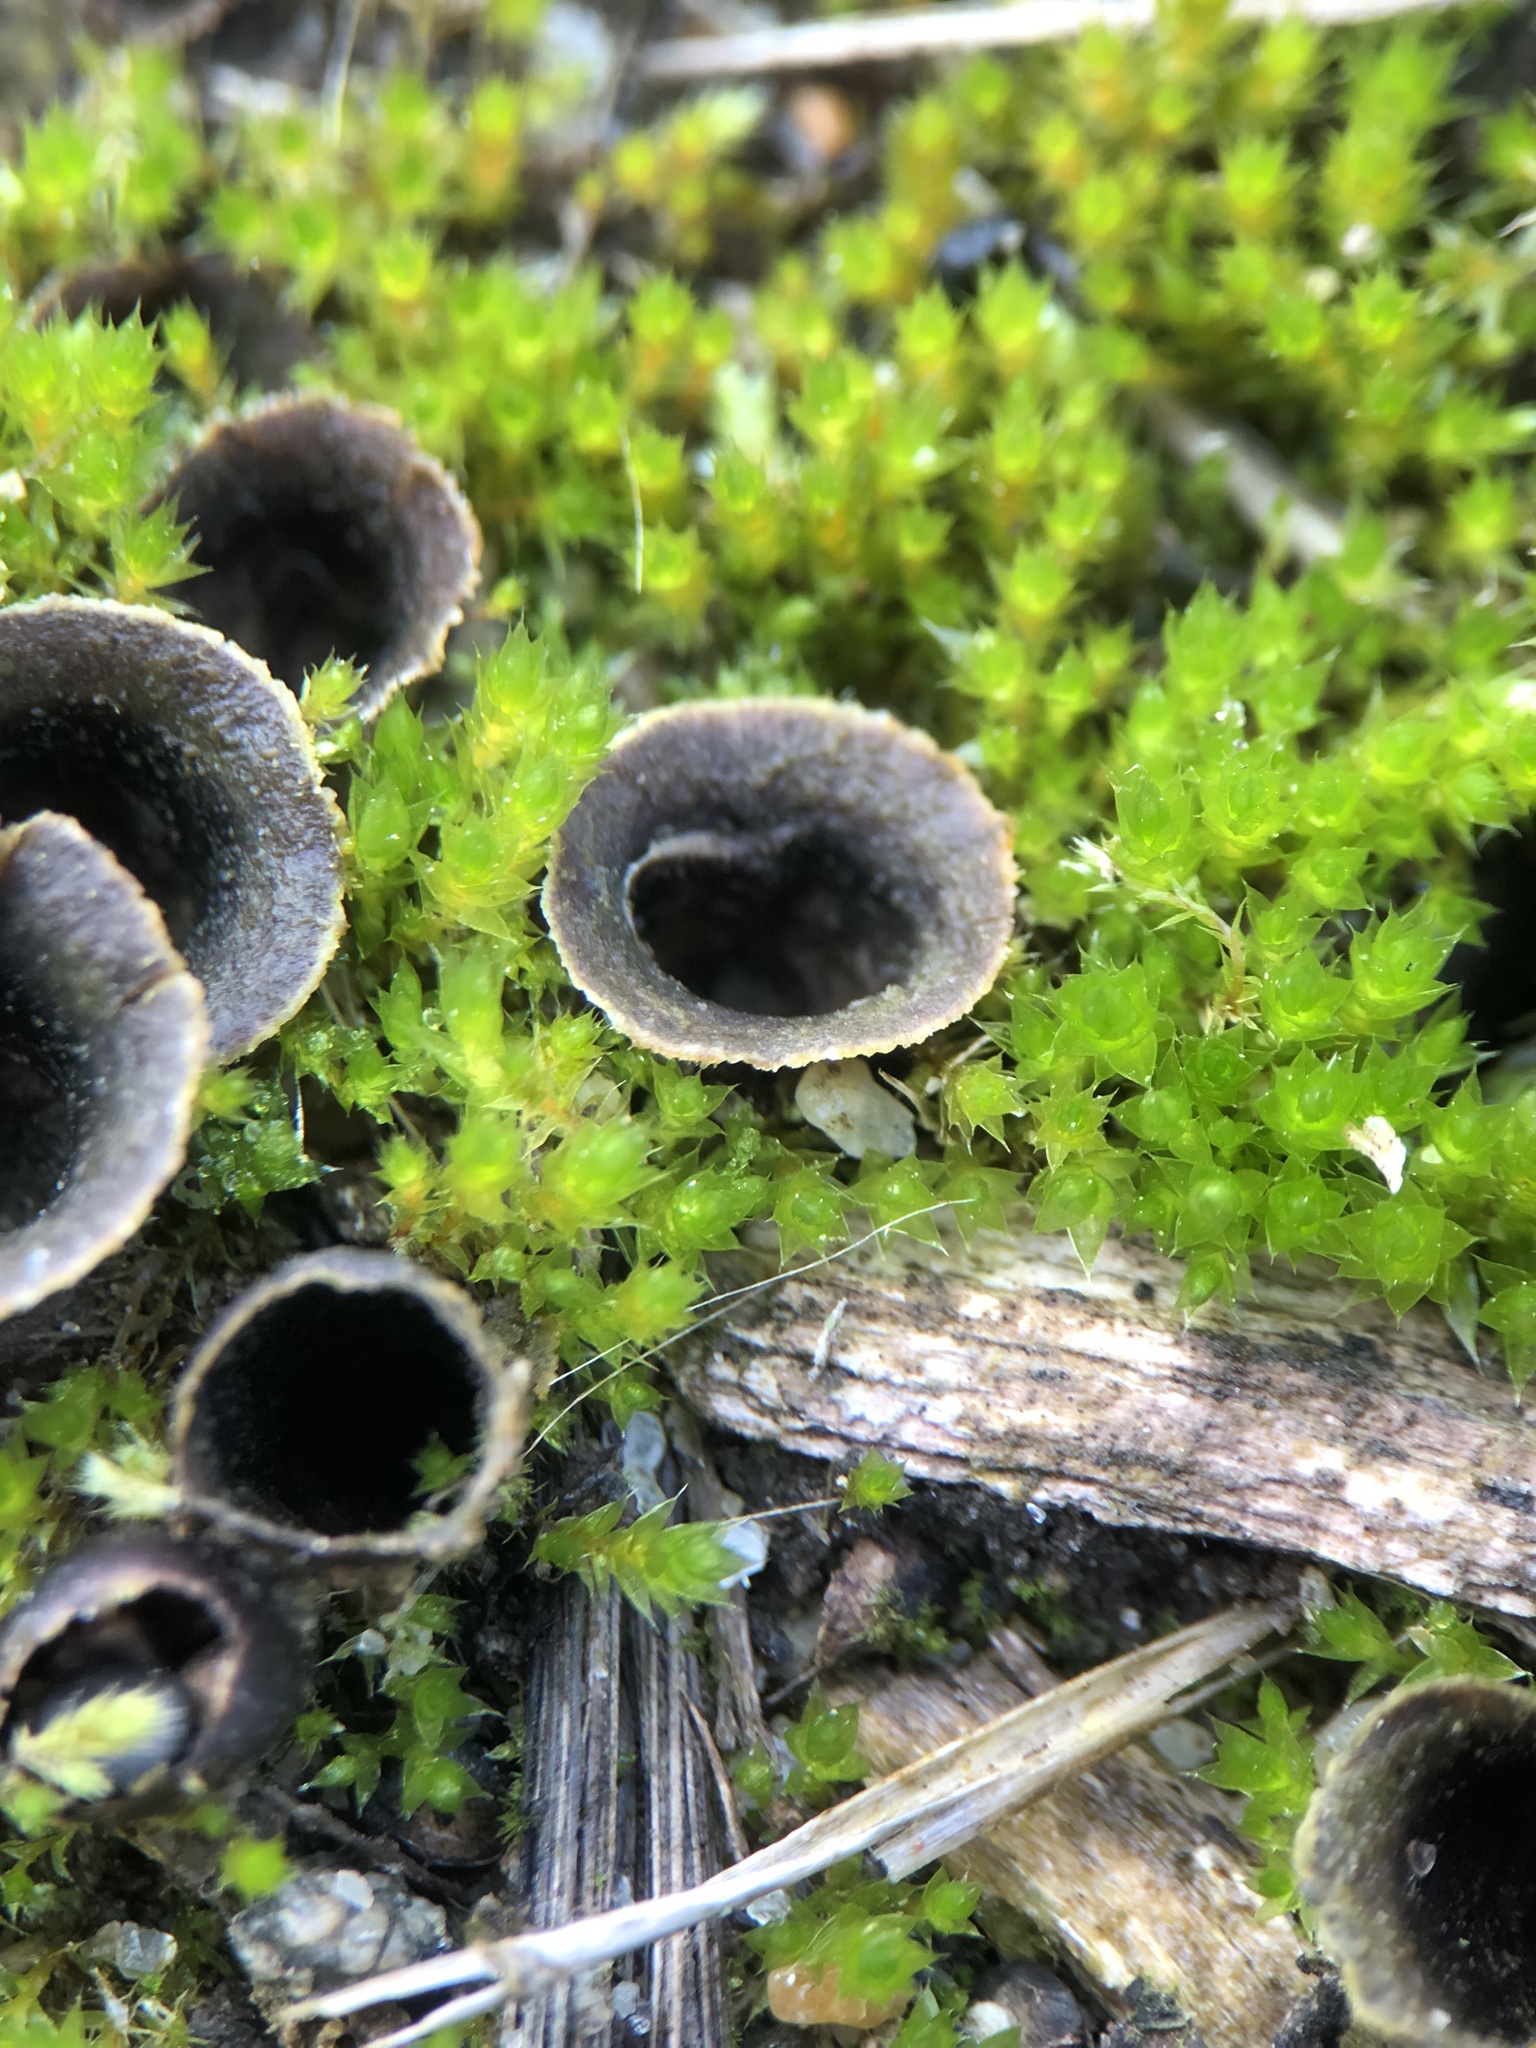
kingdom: Fungi
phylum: Basidiomycota
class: Agaricomycetes
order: Agaricales
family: Agaricaceae
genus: Cyathus
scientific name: Cyathus stercoreus
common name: Dung bird's nest
